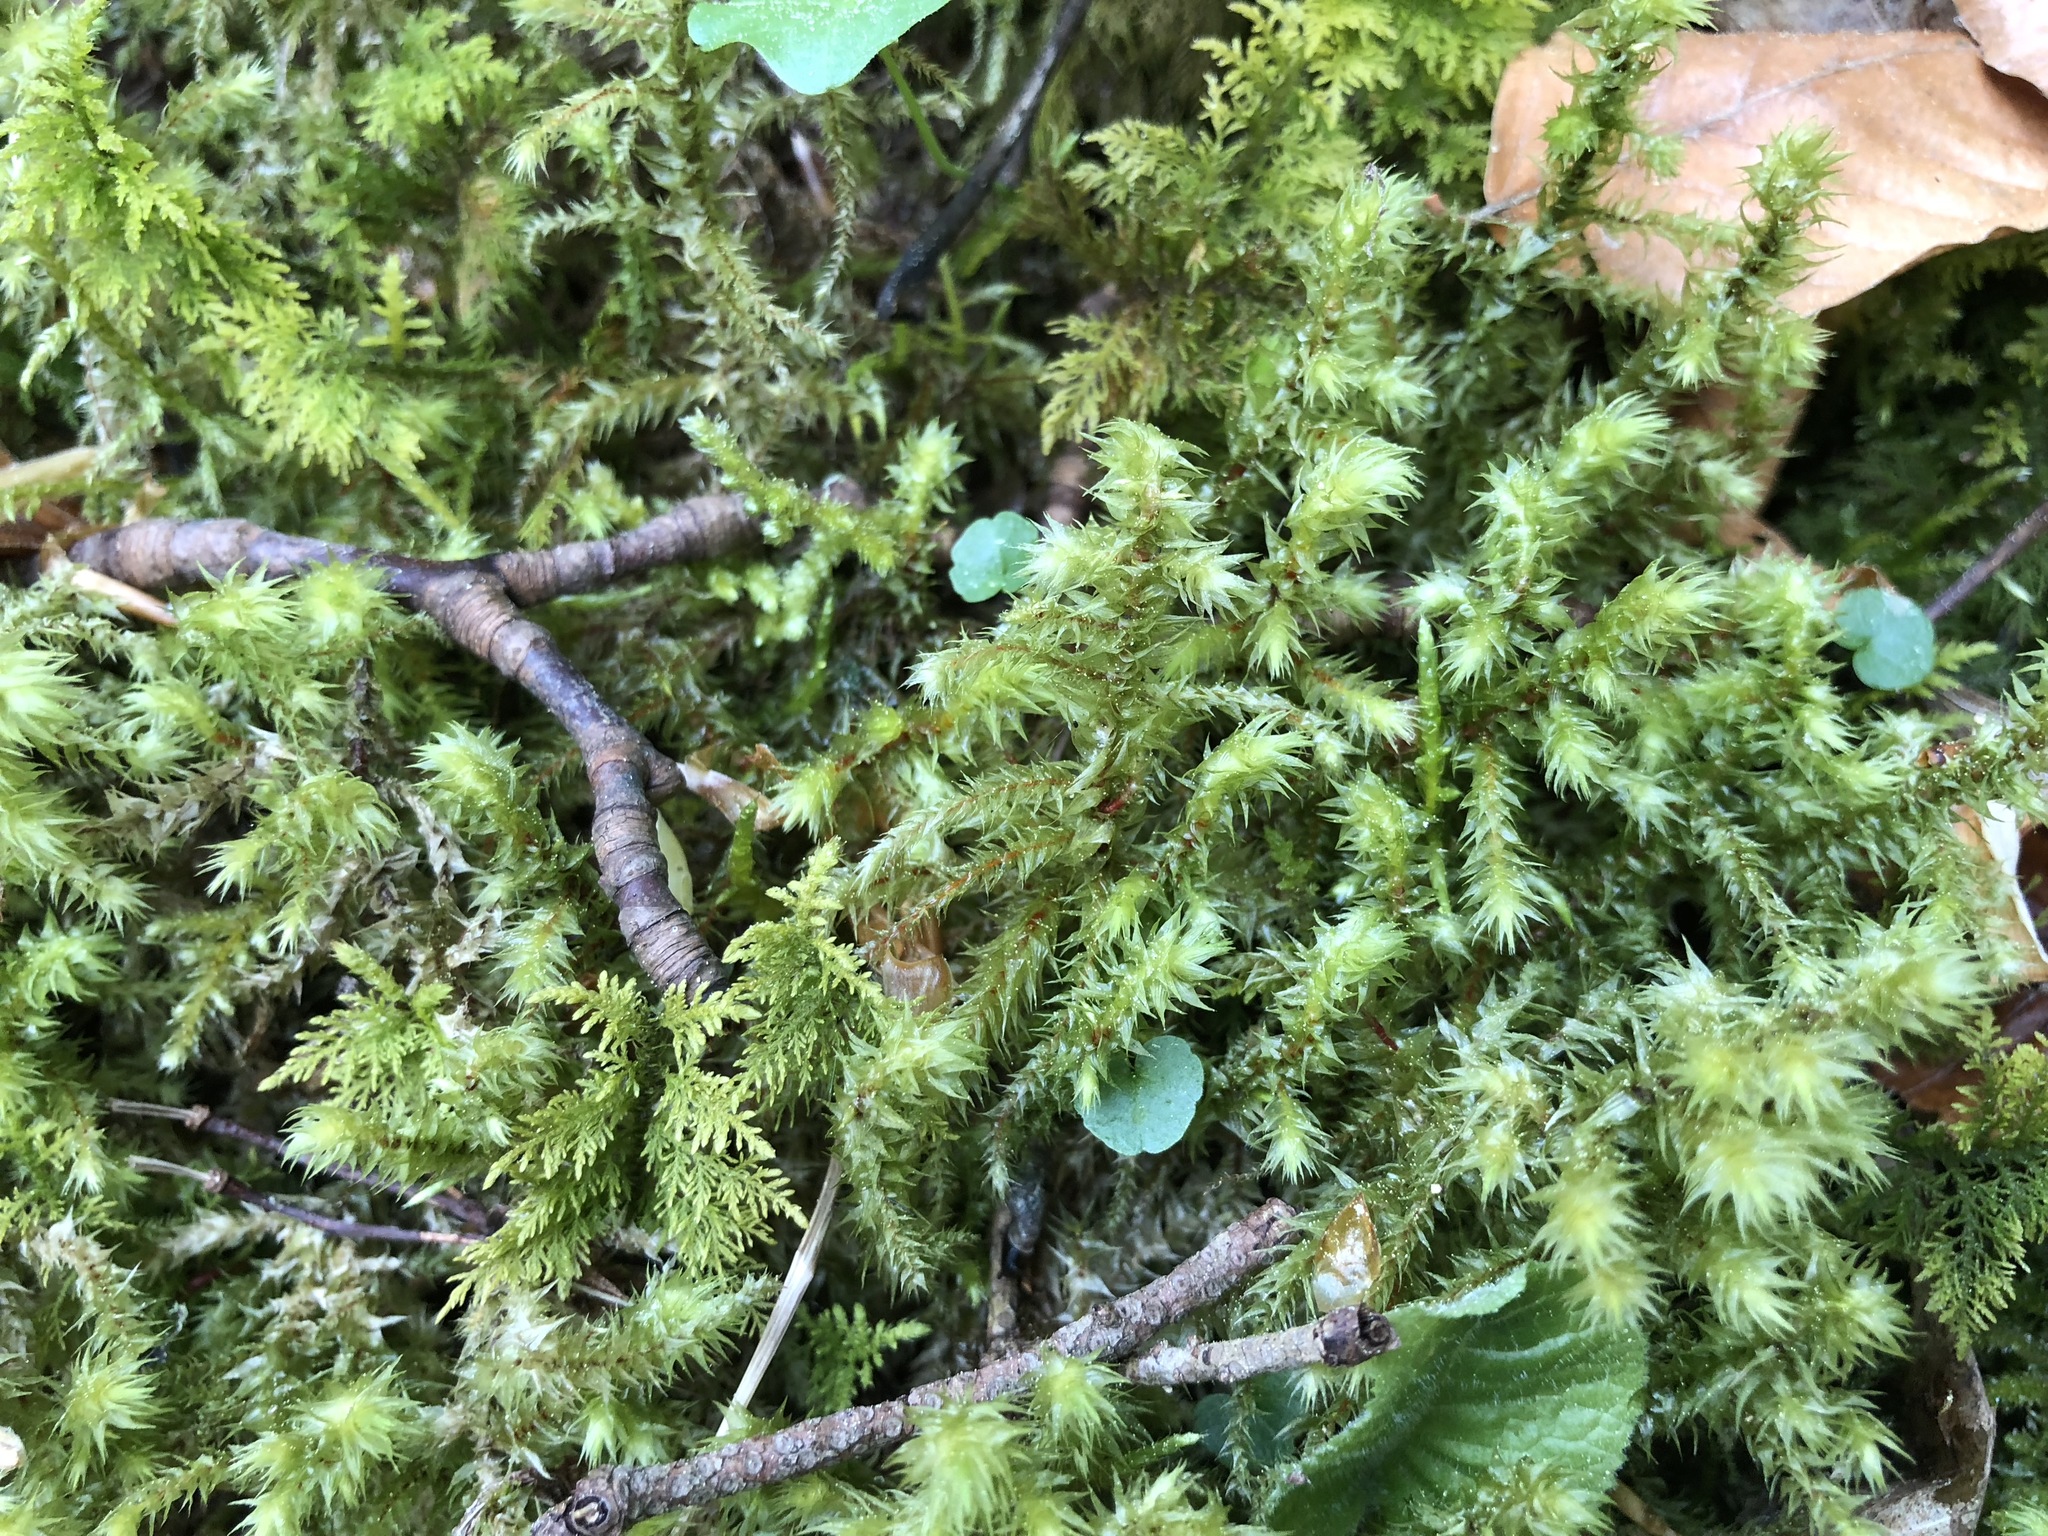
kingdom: Plantae
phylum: Bryophyta
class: Bryopsida
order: Hypnales
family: Hylocomiaceae
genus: Hylocomiadelphus
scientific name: Hylocomiadelphus triquetrus
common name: Rough goose neck moss
